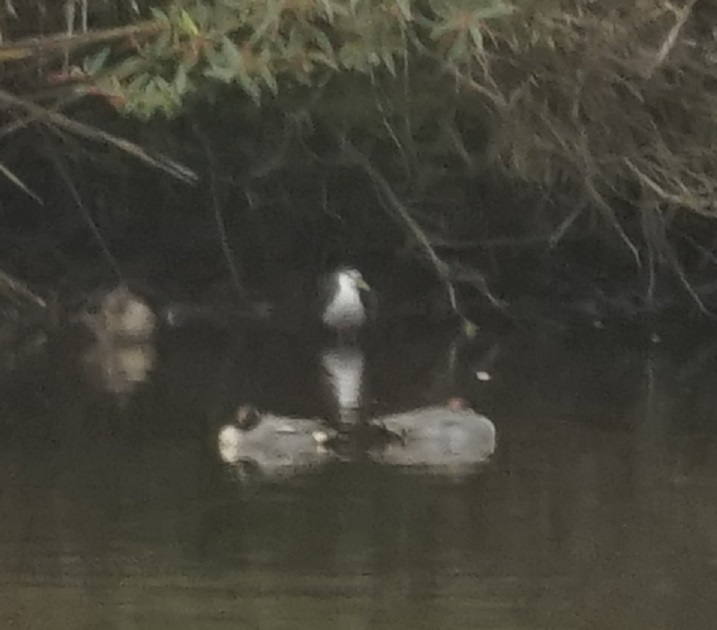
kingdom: Animalia
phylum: Chordata
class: Aves
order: Gruiformes
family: Rallidae
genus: Amaurornis
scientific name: Amaurornis phoenicurus
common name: White-breasted waterhen
